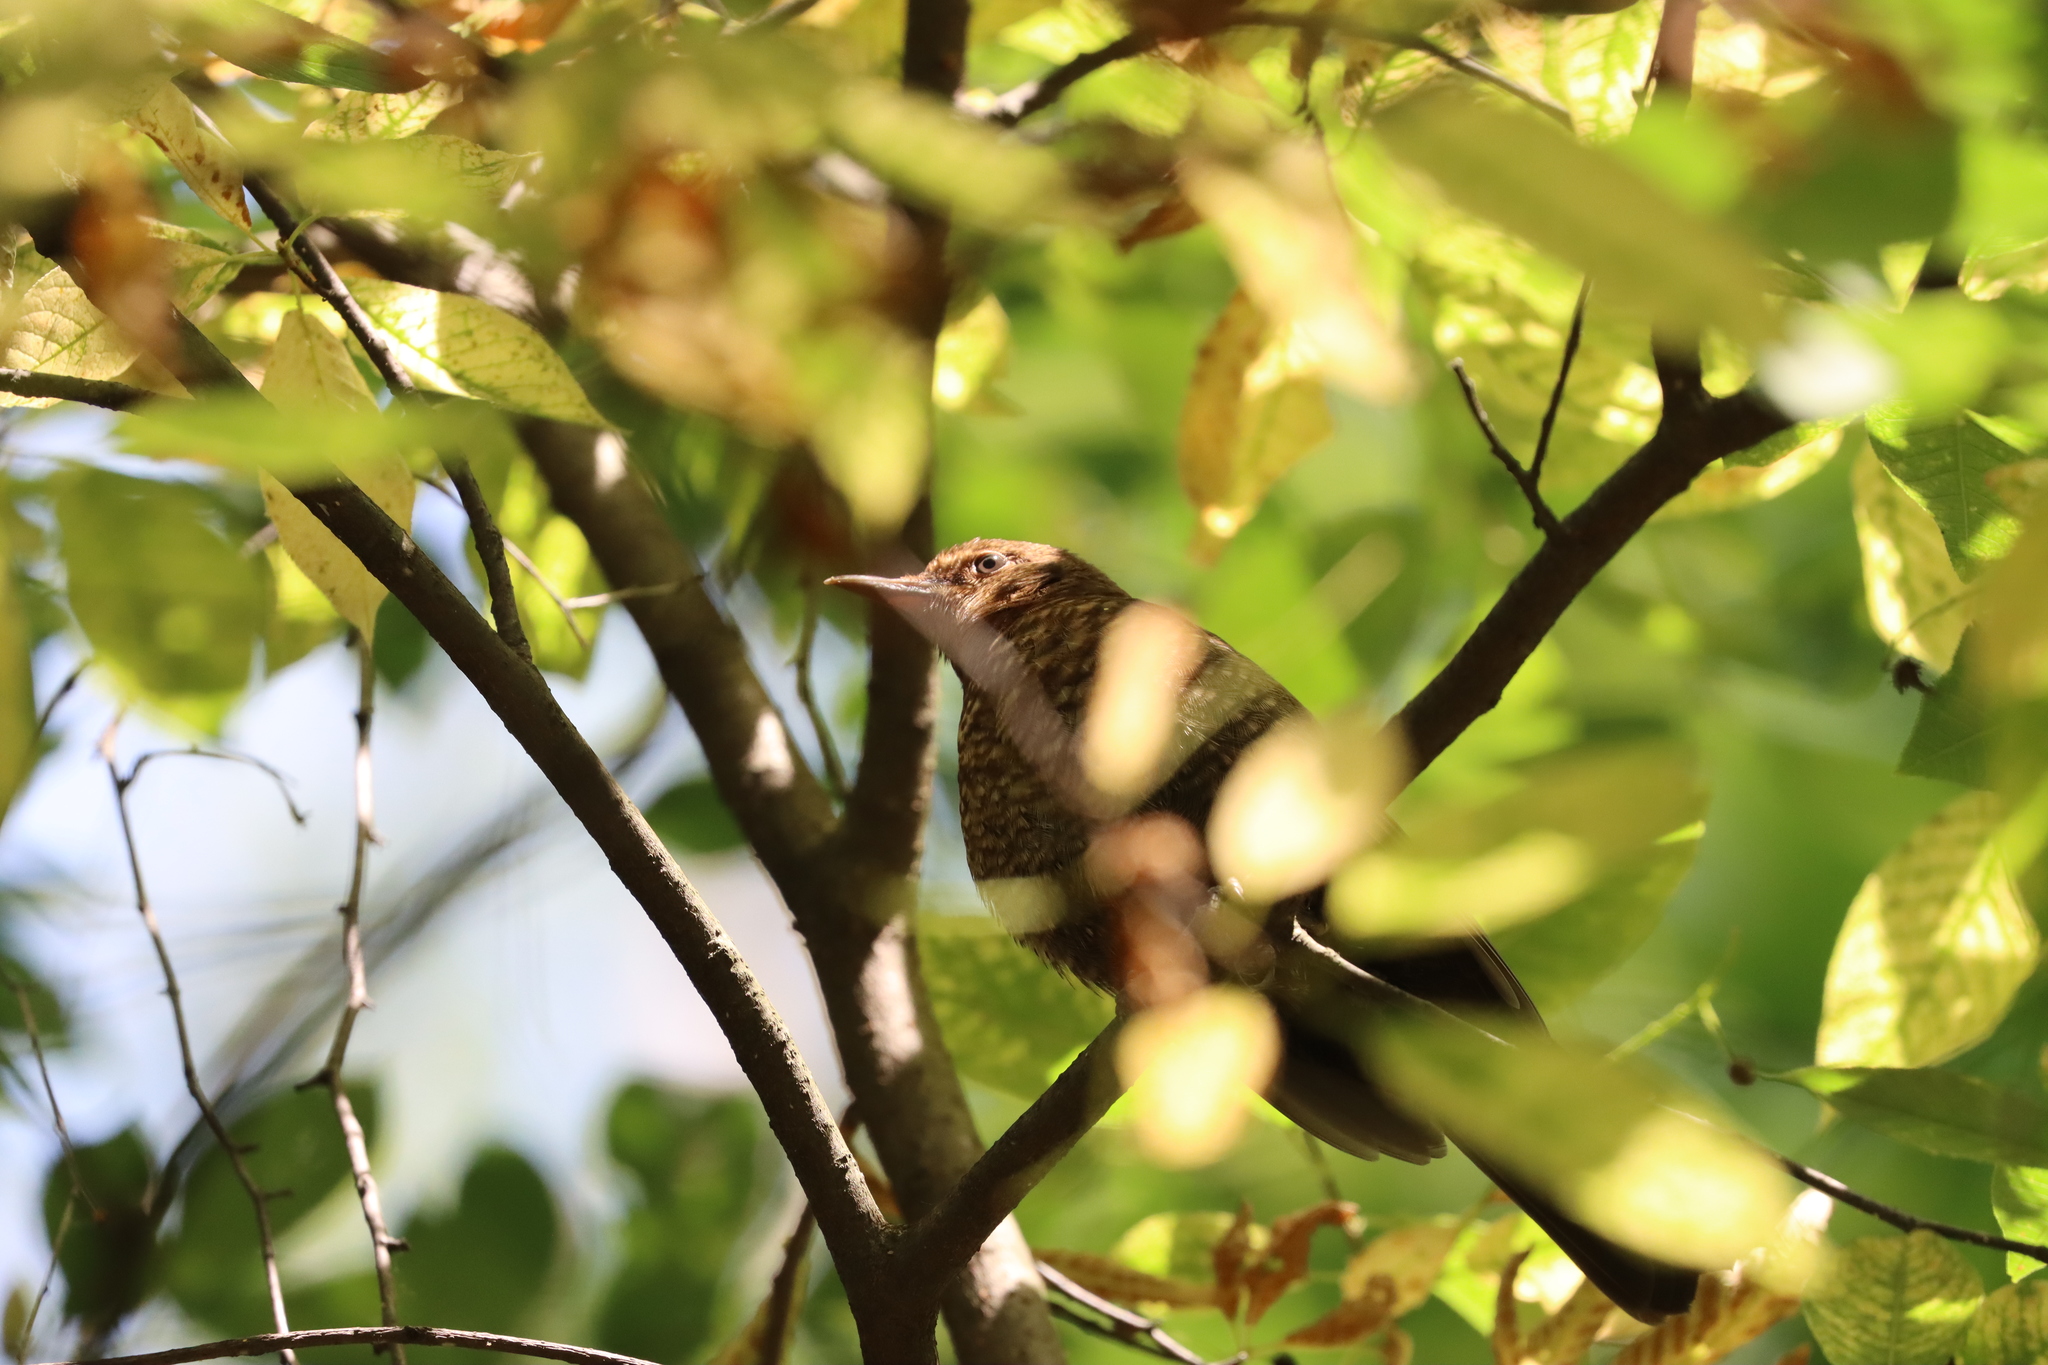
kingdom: Animalia
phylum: Chordata
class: Aves
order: Passeriformes
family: Turdidae
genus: Turdus
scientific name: Turdus merula
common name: Common blackbird
